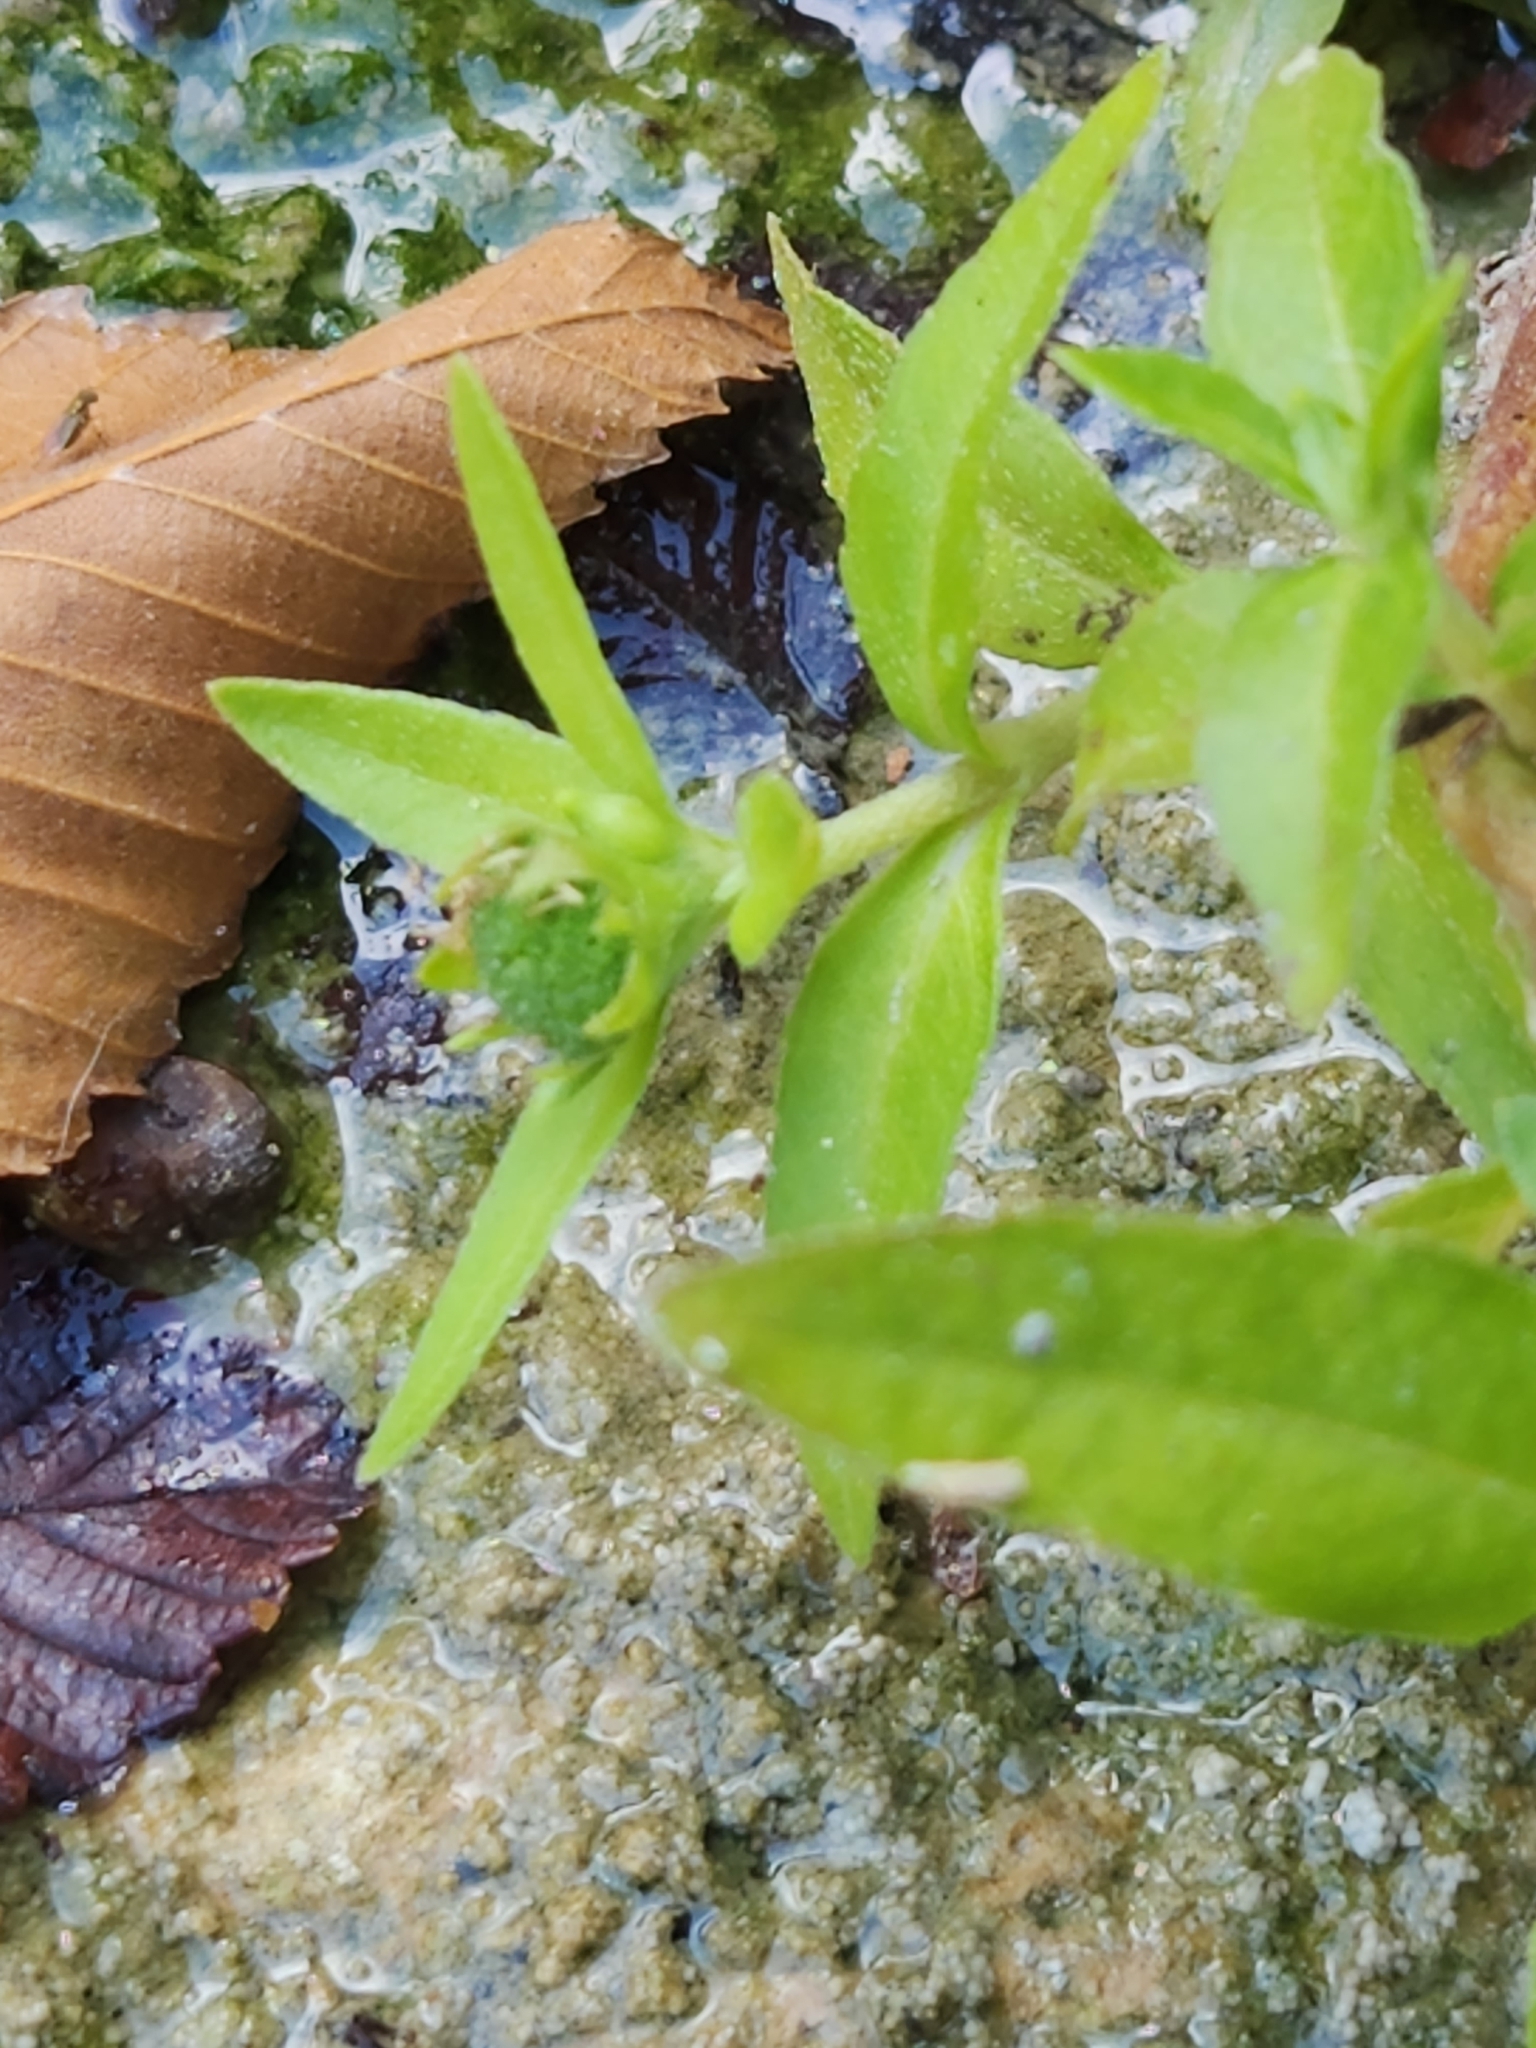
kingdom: Plantae
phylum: Tracheophyta
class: Magnoliopsida
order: Asterales
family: Asteraceae
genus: Eclipta
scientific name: Eclipta prostrata
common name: False daisy
